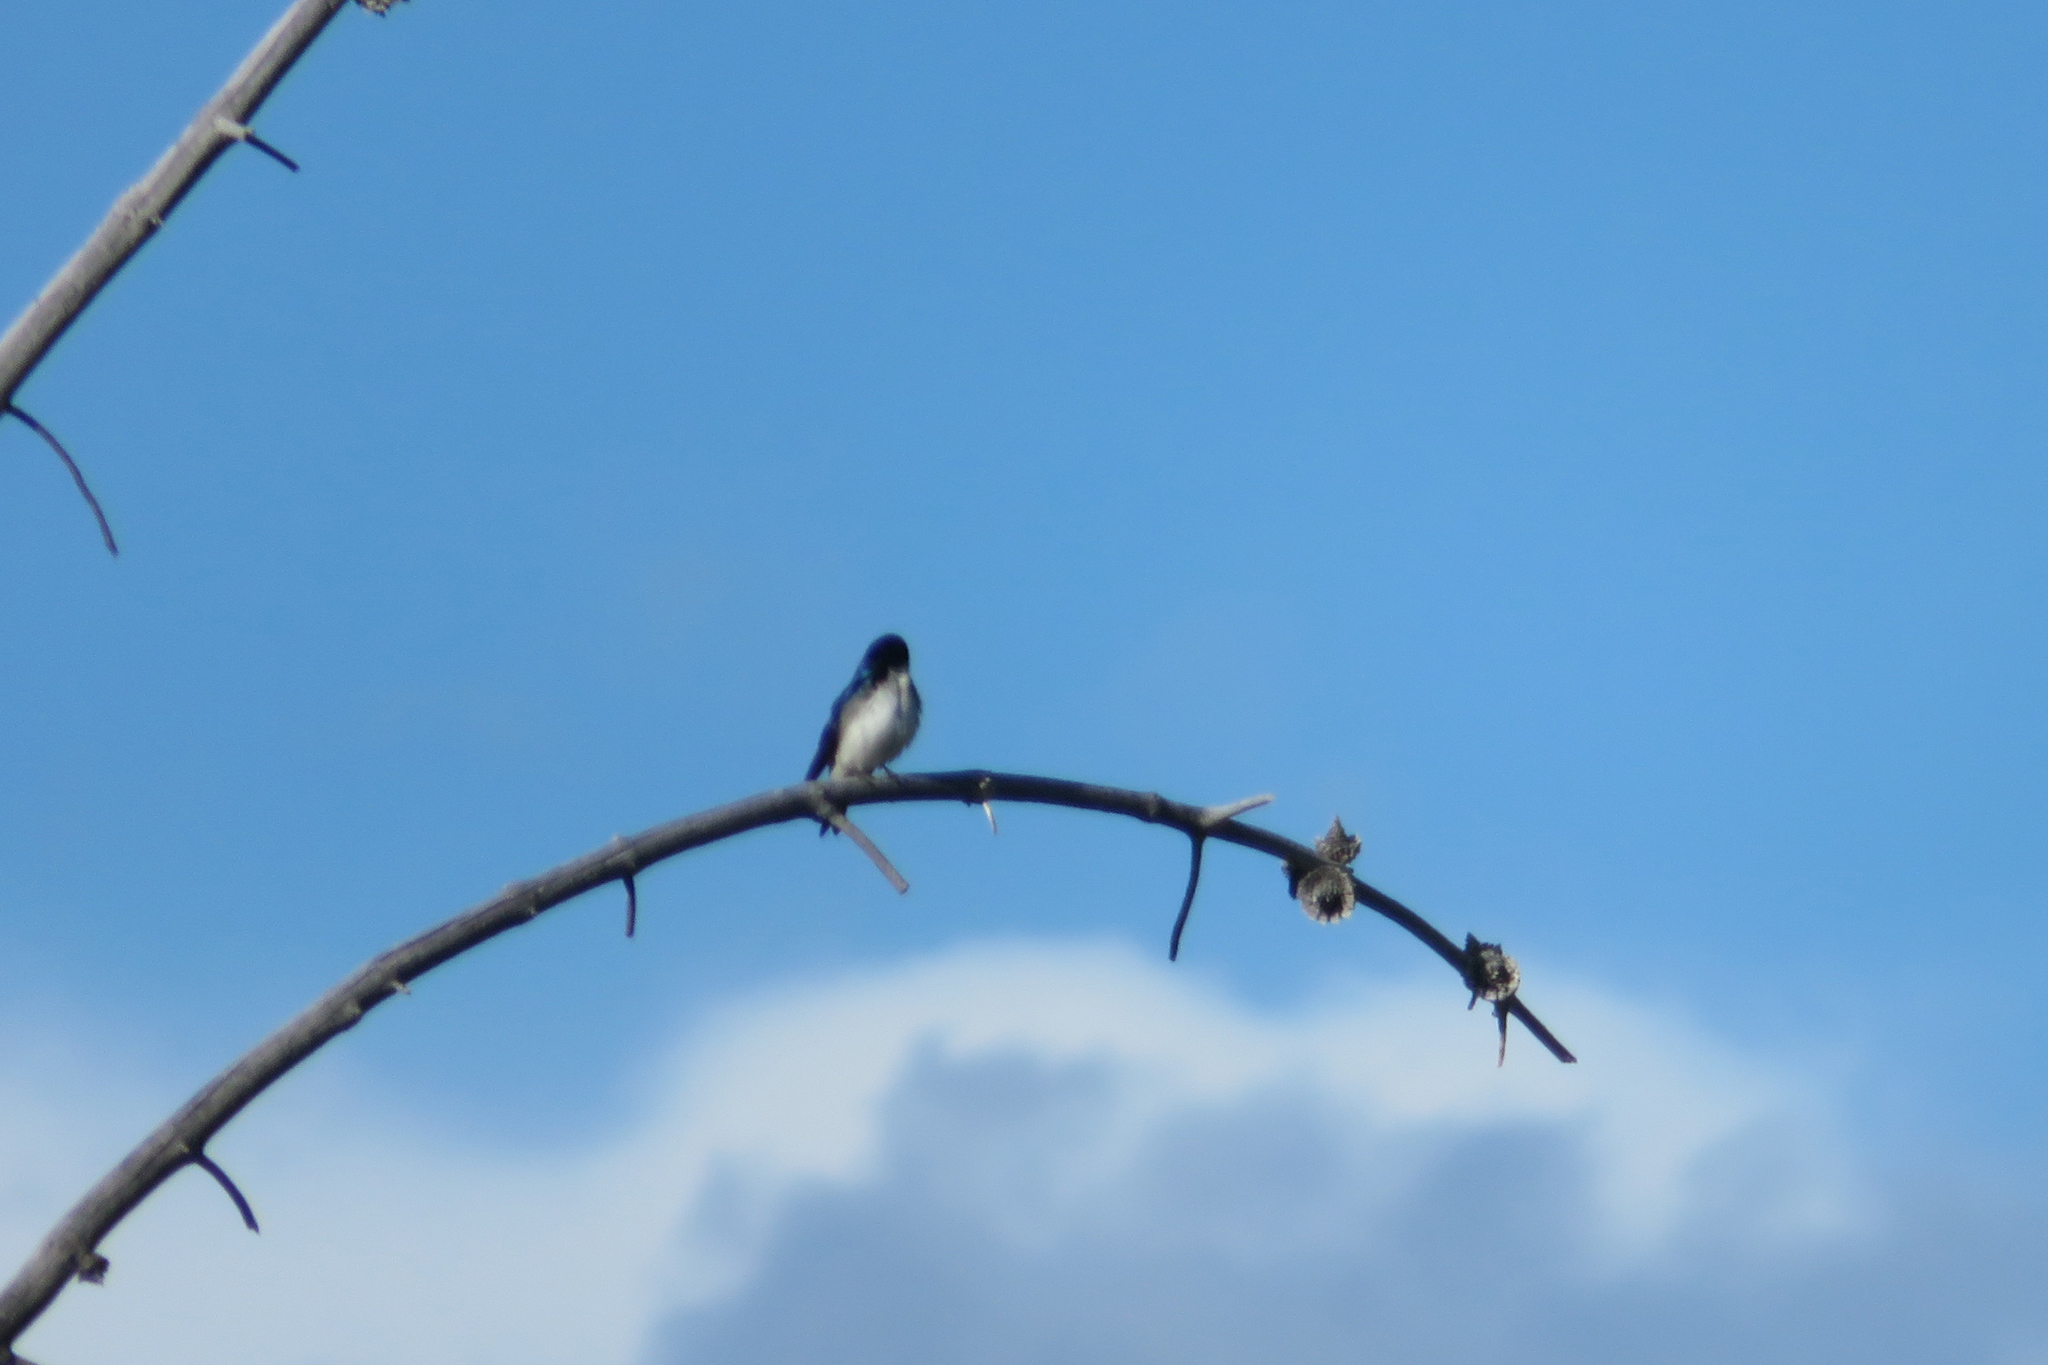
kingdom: Animalia
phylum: Chordata
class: Aves
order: Passeriformes
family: Hirundinidae
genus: Tachycineta
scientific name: Tachycineta bicolor
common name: Tree swallow
